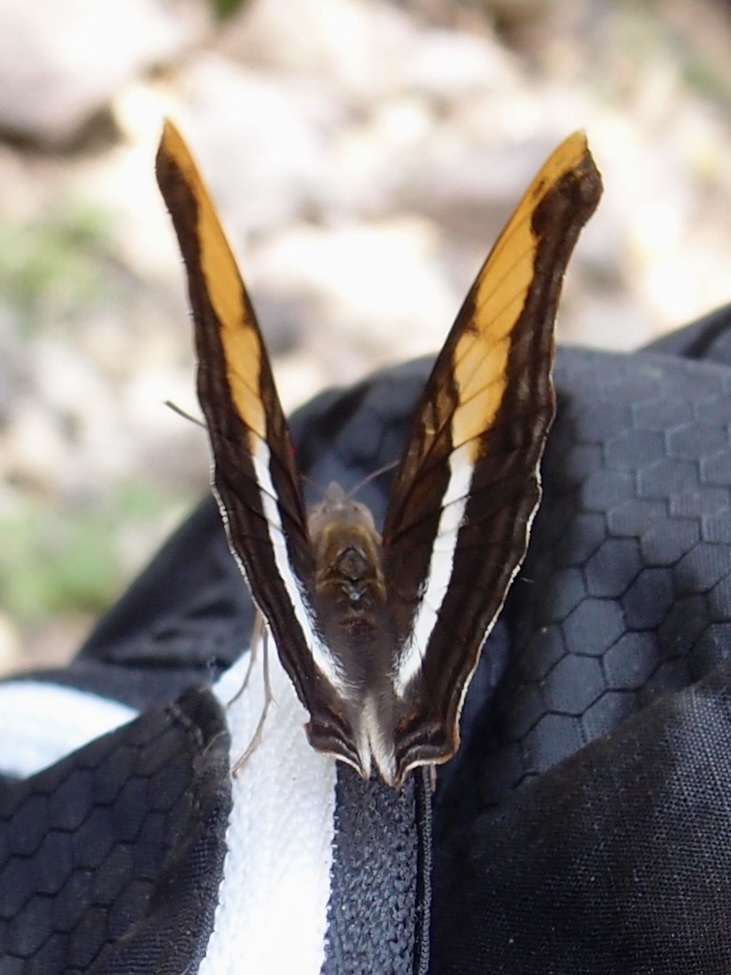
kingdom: Animalia
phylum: Arthropoda
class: Insecta
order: Lepidoptera
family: Nymphalidae
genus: Doxocopa
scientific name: Doxocopa laure
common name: Silver emperor
